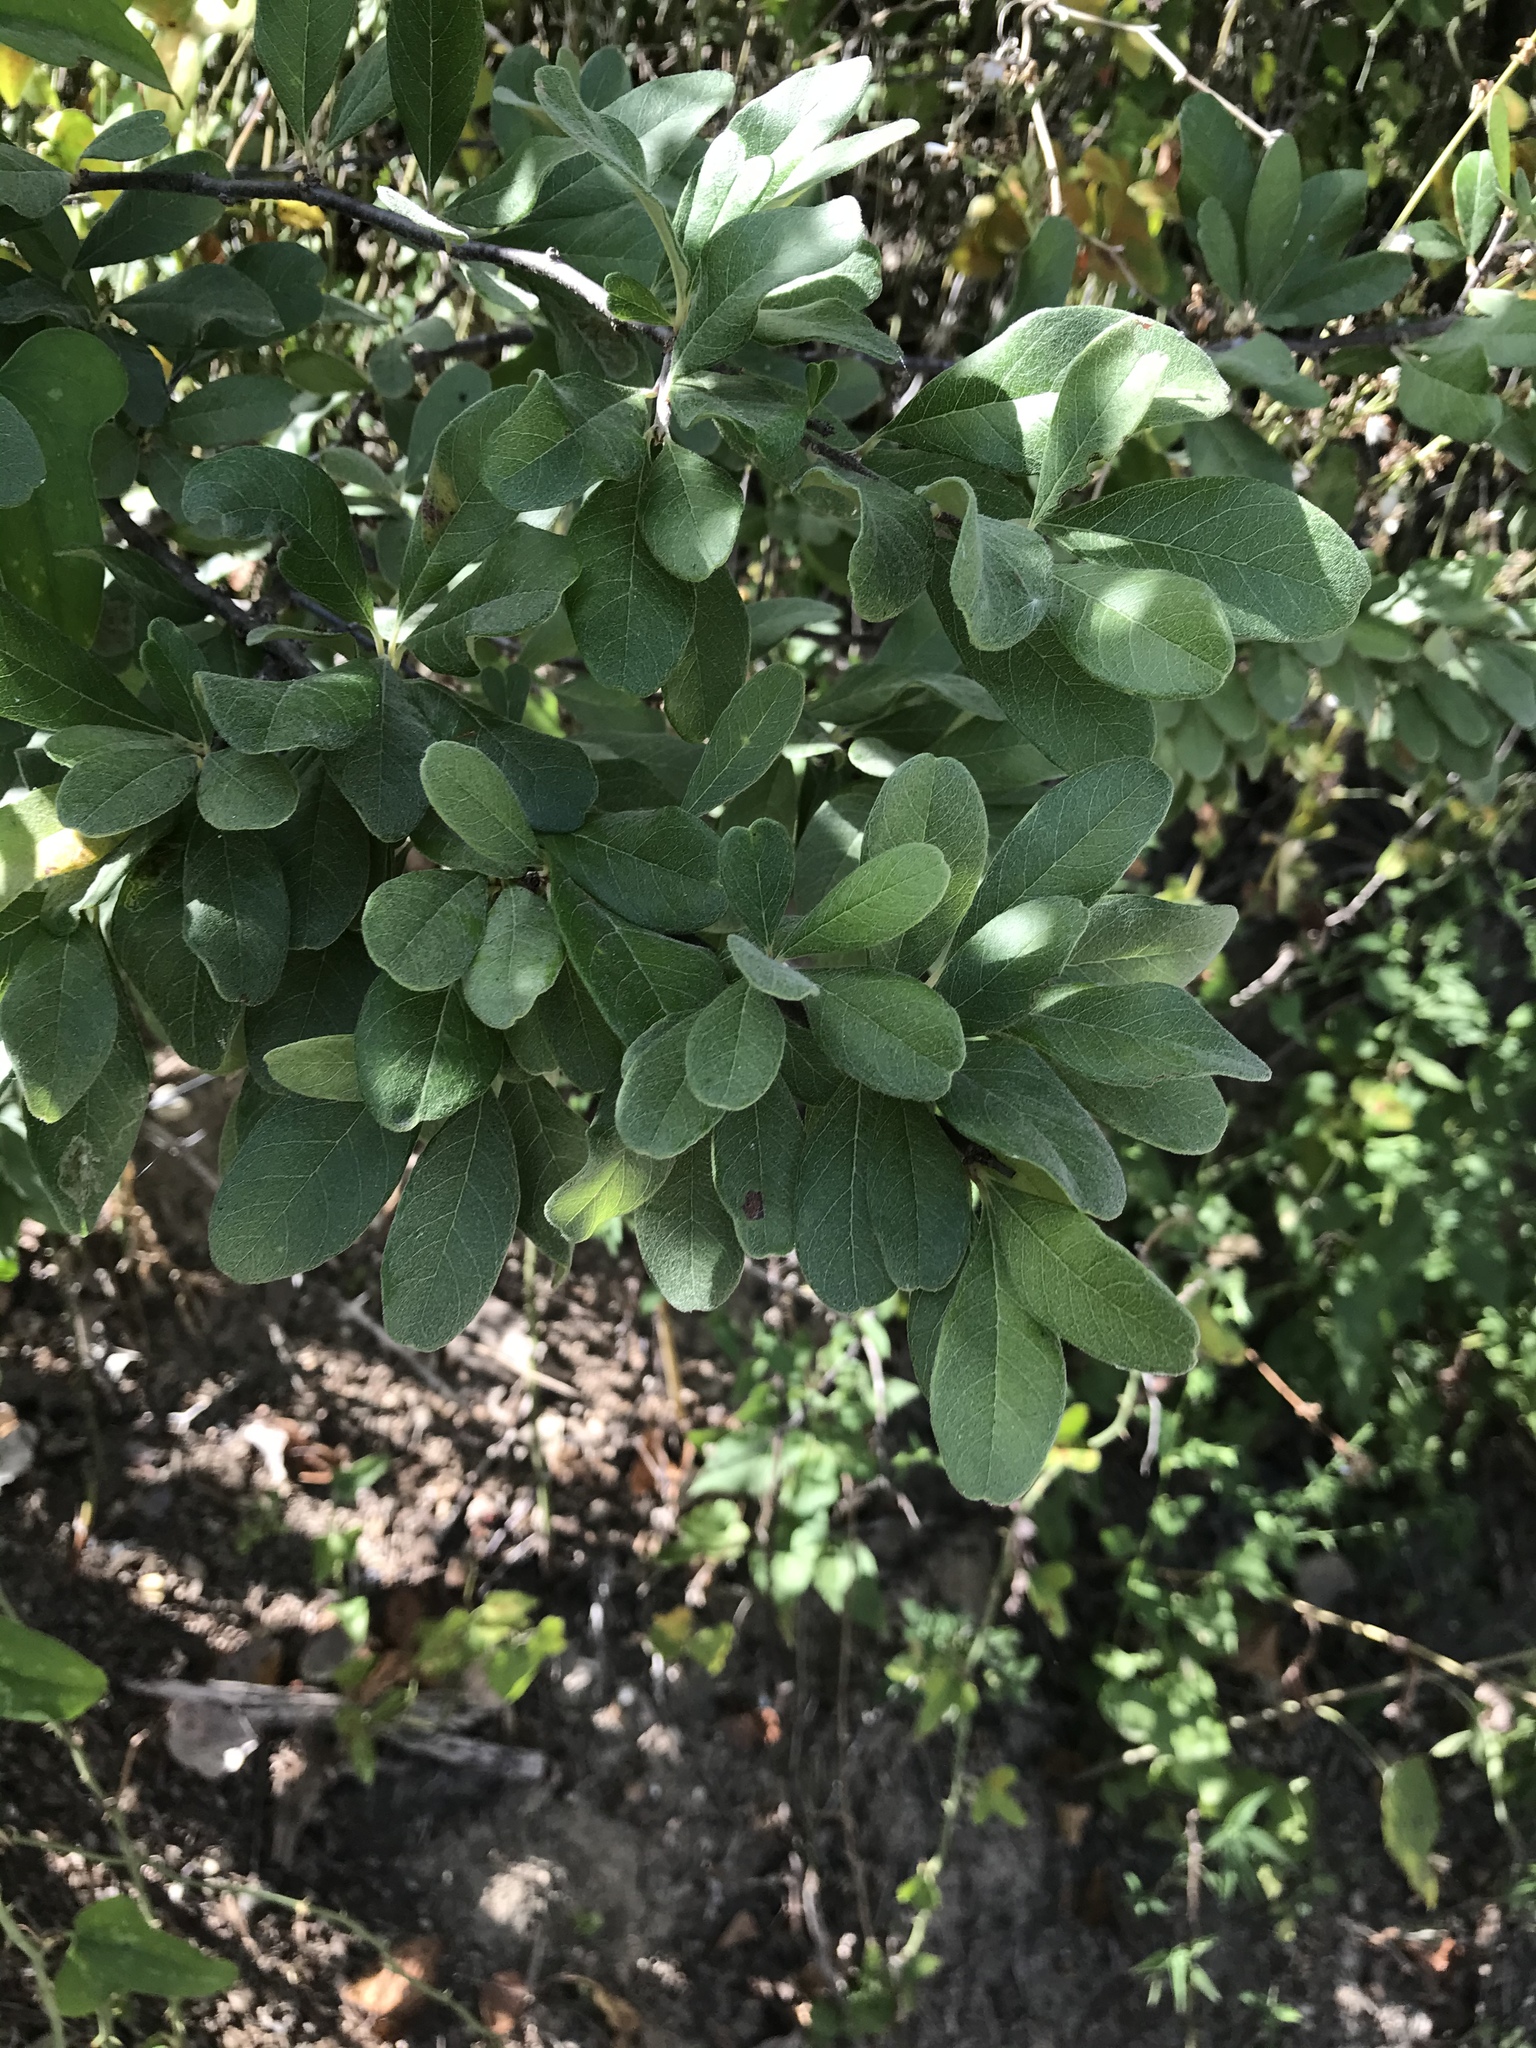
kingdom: Plantae
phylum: Tracheophyta
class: Magnoliopsida
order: Ericales
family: Sapotaceae
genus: Sideroxylon
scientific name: Sideroxylon lanuginosum
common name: Chittamwood
